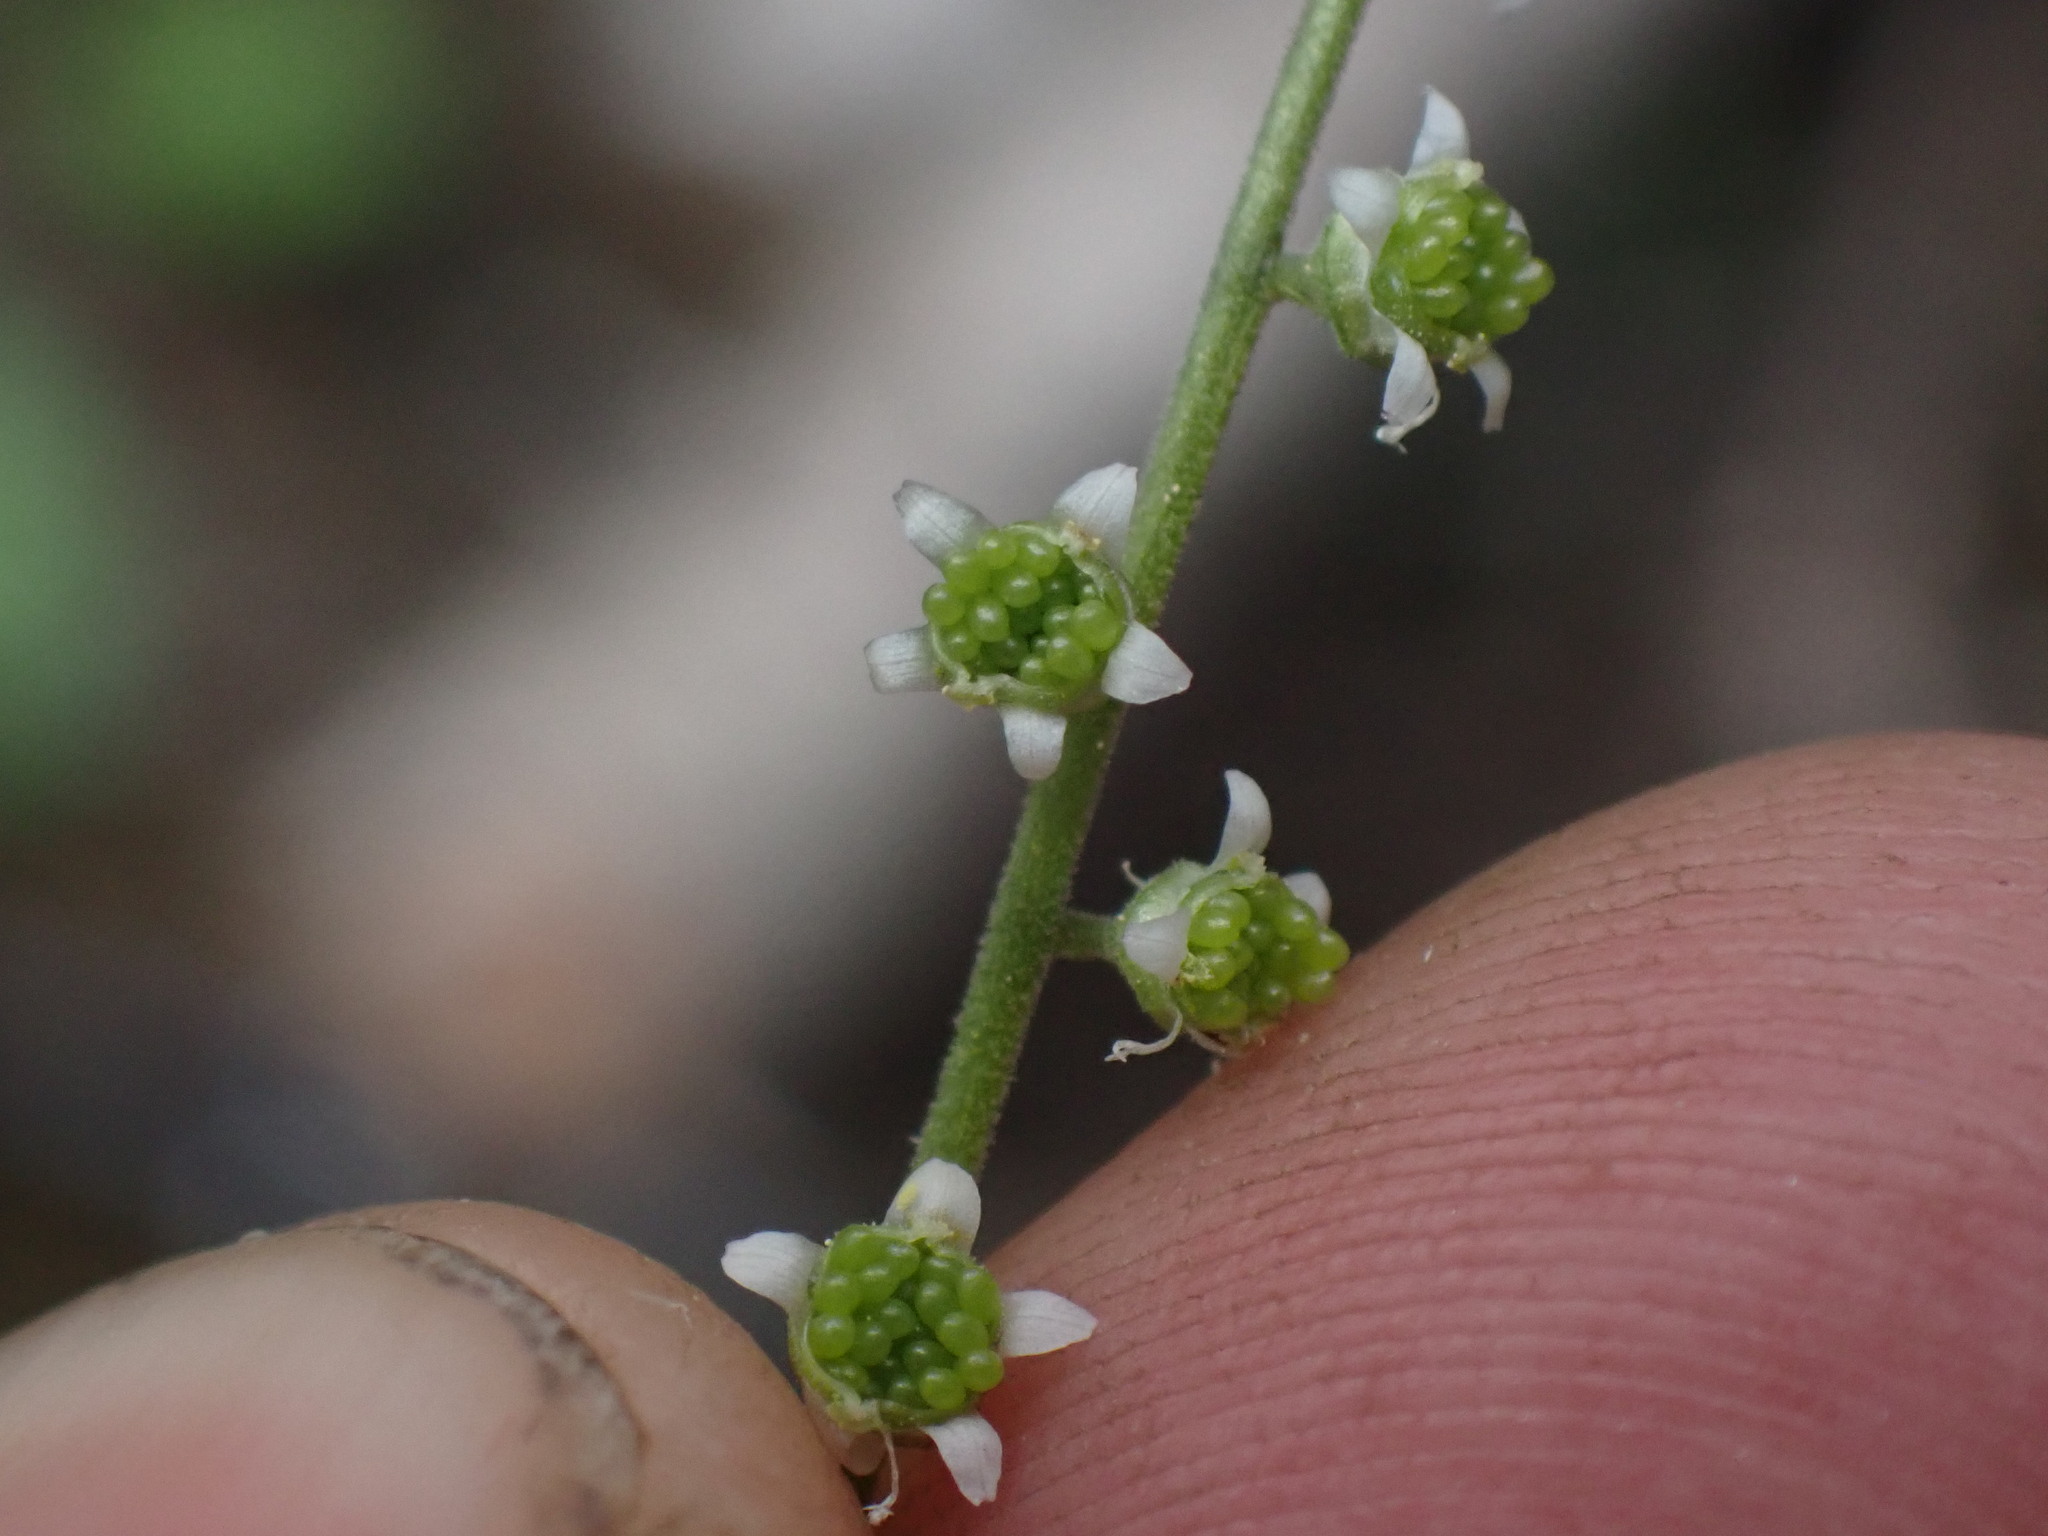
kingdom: Plantae
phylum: Tracheophyta
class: Magnoliopsida
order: Saxifragales
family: Saxifragaceae
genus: Ozomelis
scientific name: Ozomelis trifida
